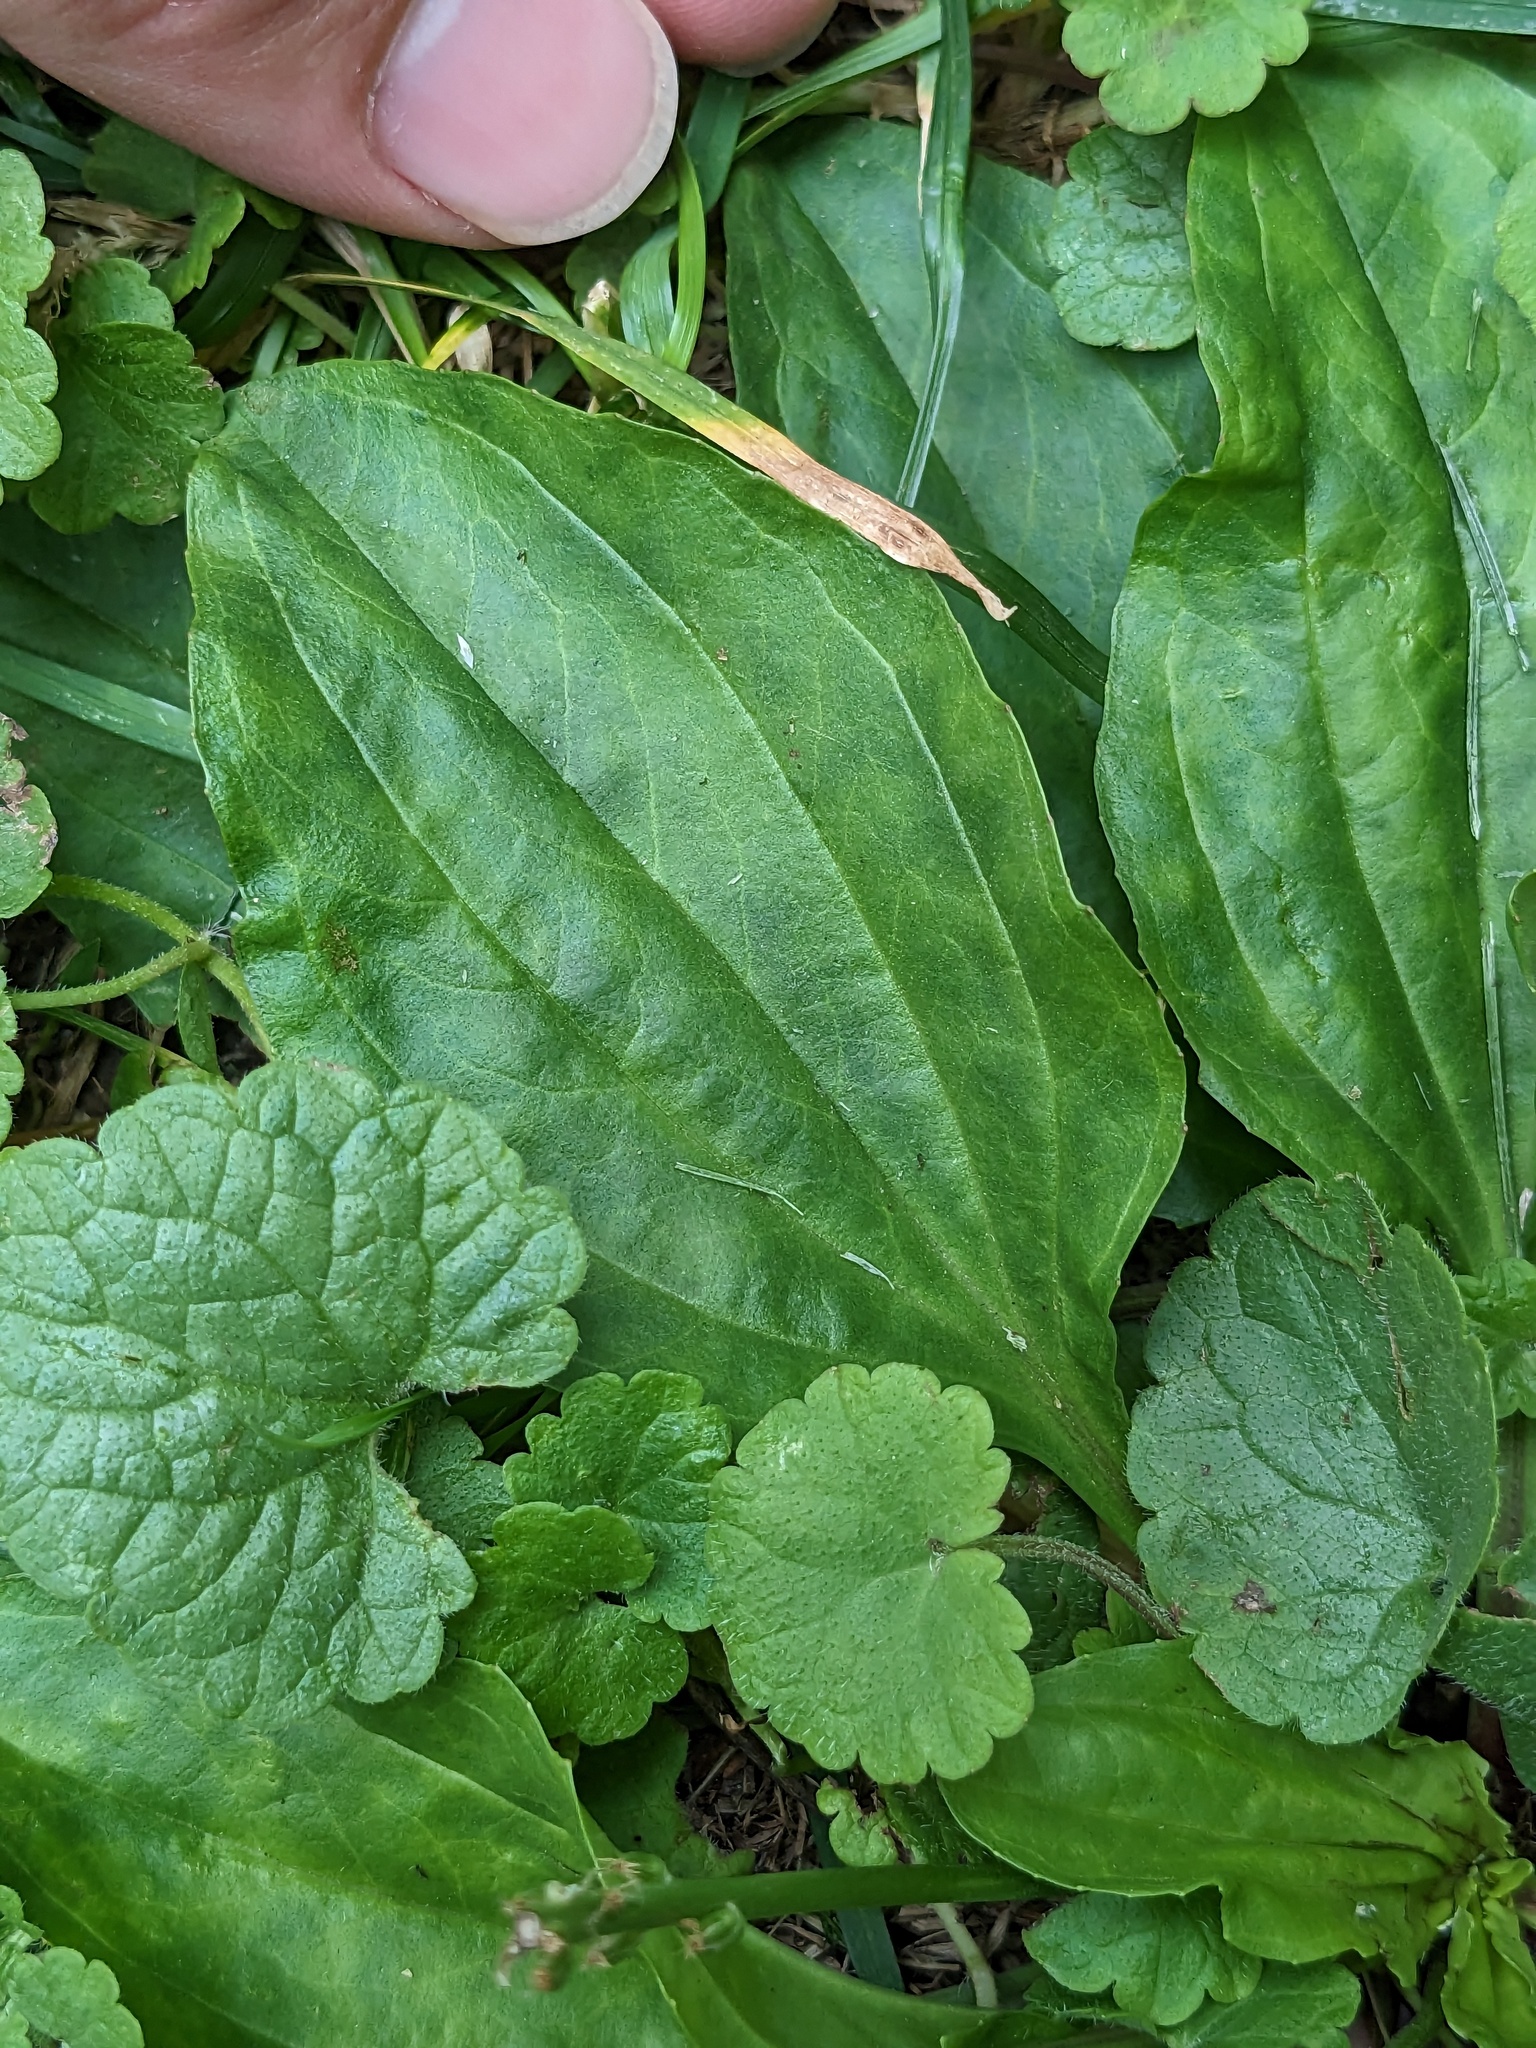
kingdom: Plantae
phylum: Tracheophyta
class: Magnoliopsida
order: Lamiales
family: Plantaginaceae
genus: Plantago
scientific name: Plantago rugelii
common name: American plantain
